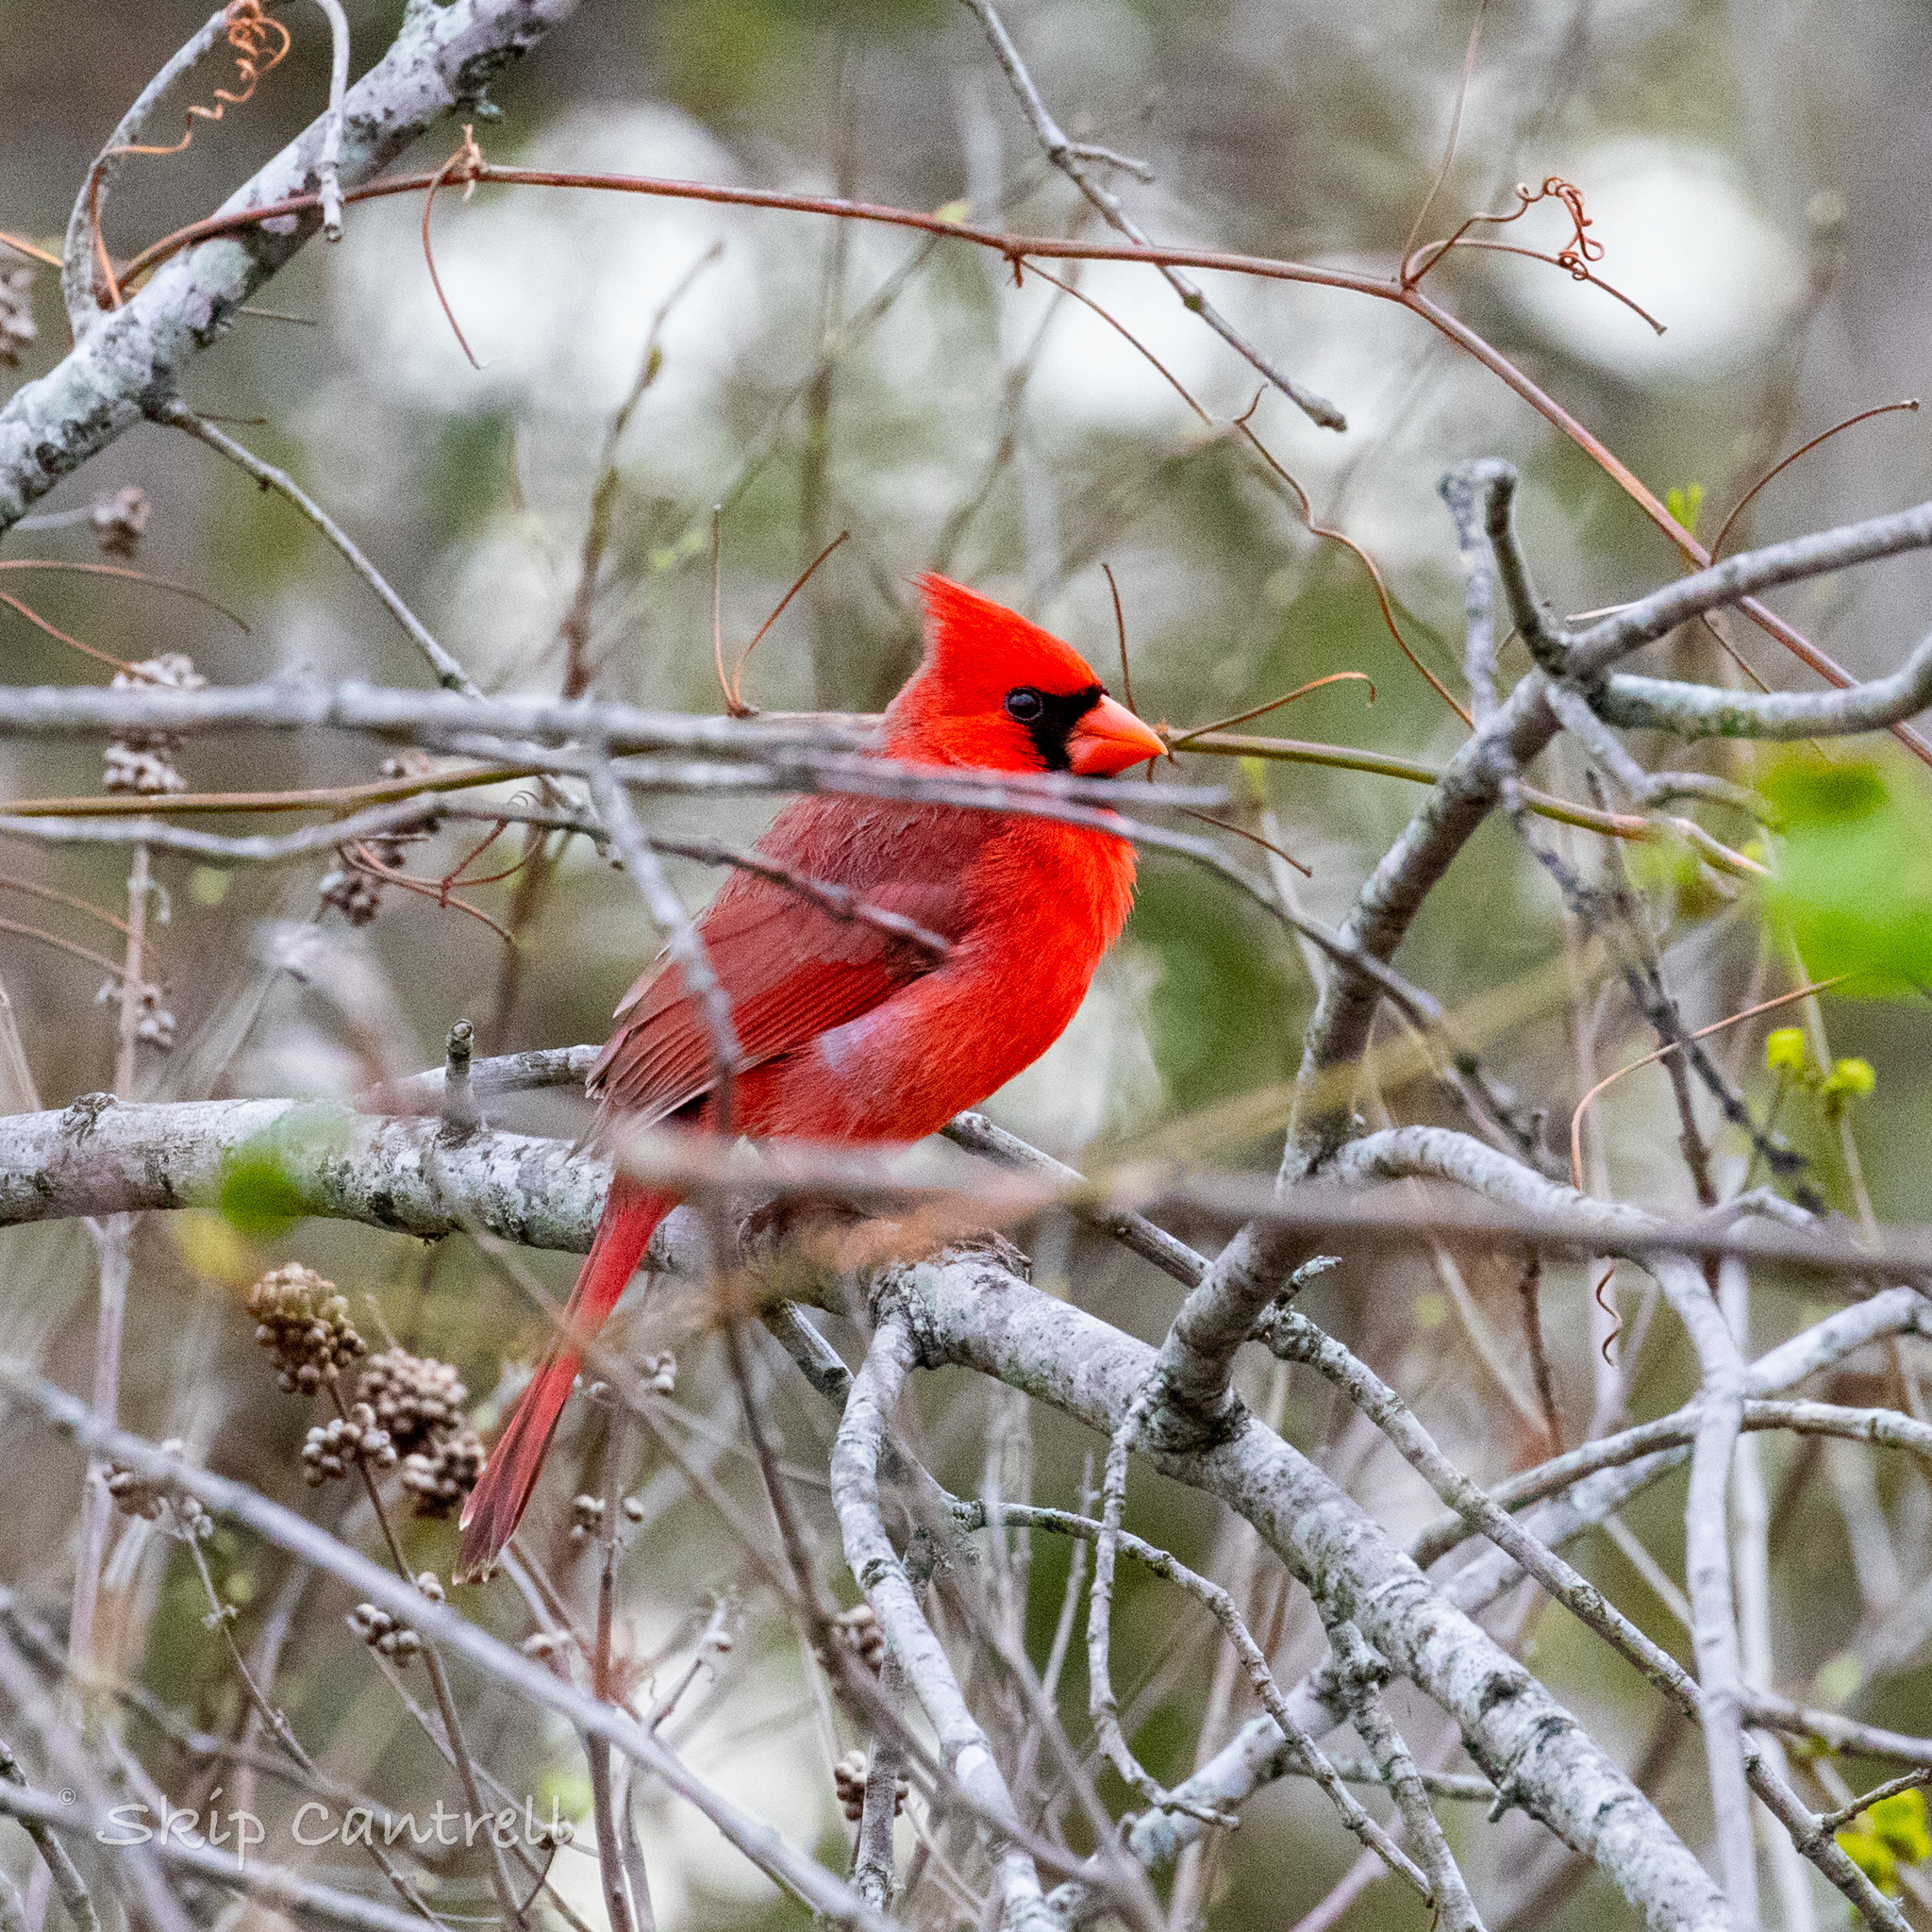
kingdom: Animalia
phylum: Chordata
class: Aves
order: Passeriformes
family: Cardinalidae
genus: Cardinalis
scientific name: Cardinalis cardinalis
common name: Northern cardinal
